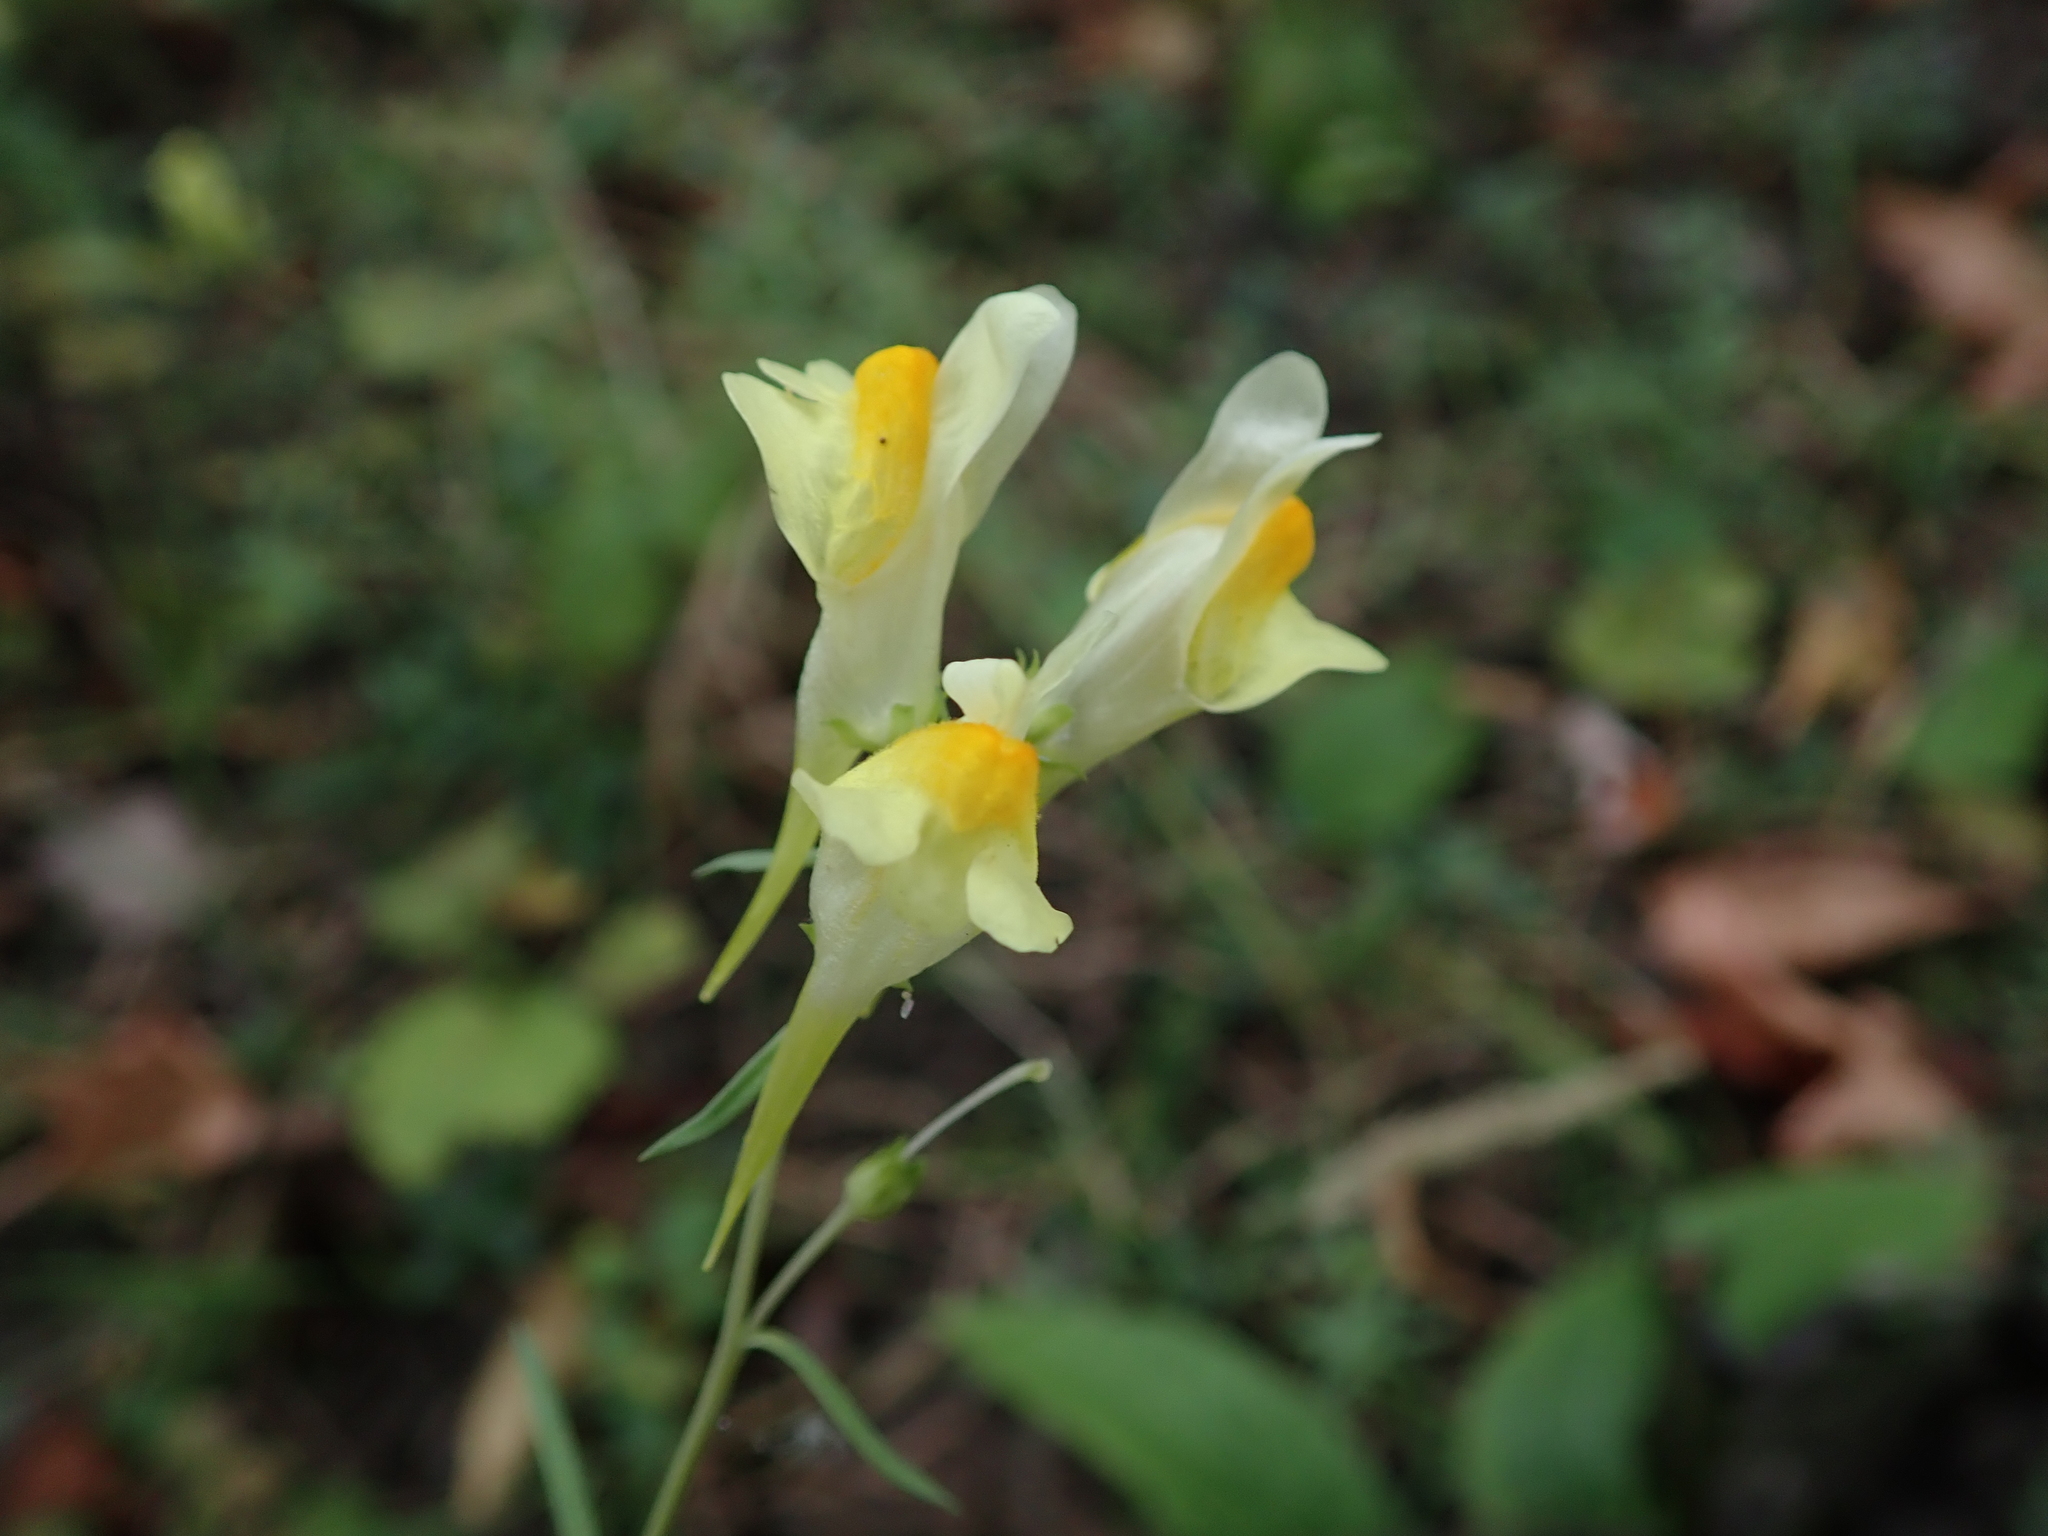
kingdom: Plantae
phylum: Tracheophyta
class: Magnoliopsida
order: Lamiales
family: Plantaginaceae
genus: Linaria
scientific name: Linaria vulgaris
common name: Butter and eggs
